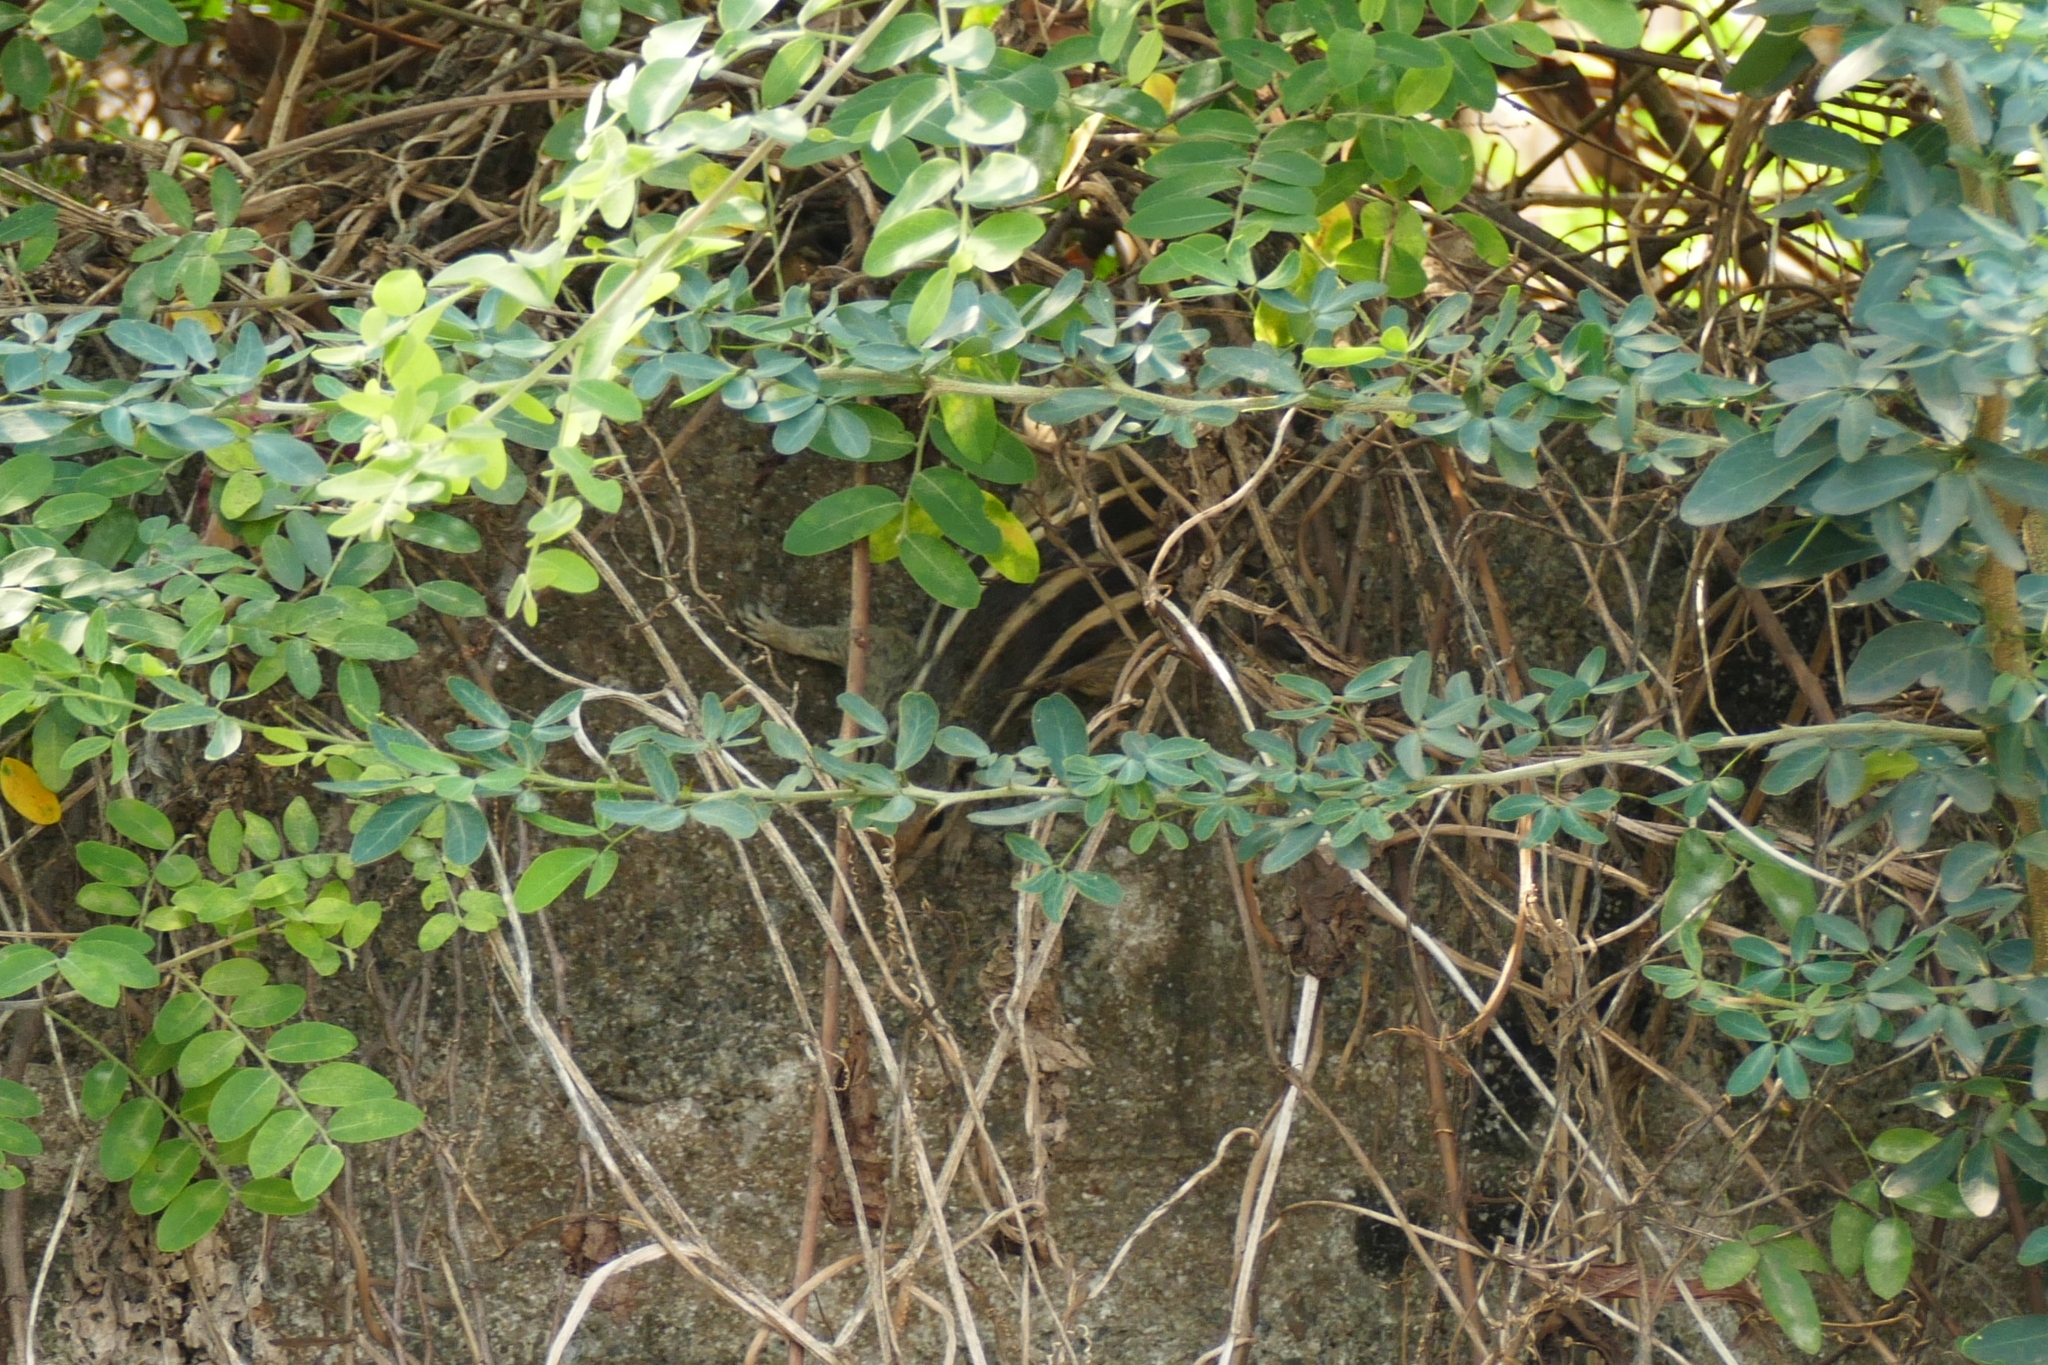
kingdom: Animalia
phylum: Chordata
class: Mammalia
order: Rodentia
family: Sciuridae
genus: Funambulus
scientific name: Funambulus pennantii
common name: Northern palm squirrel
